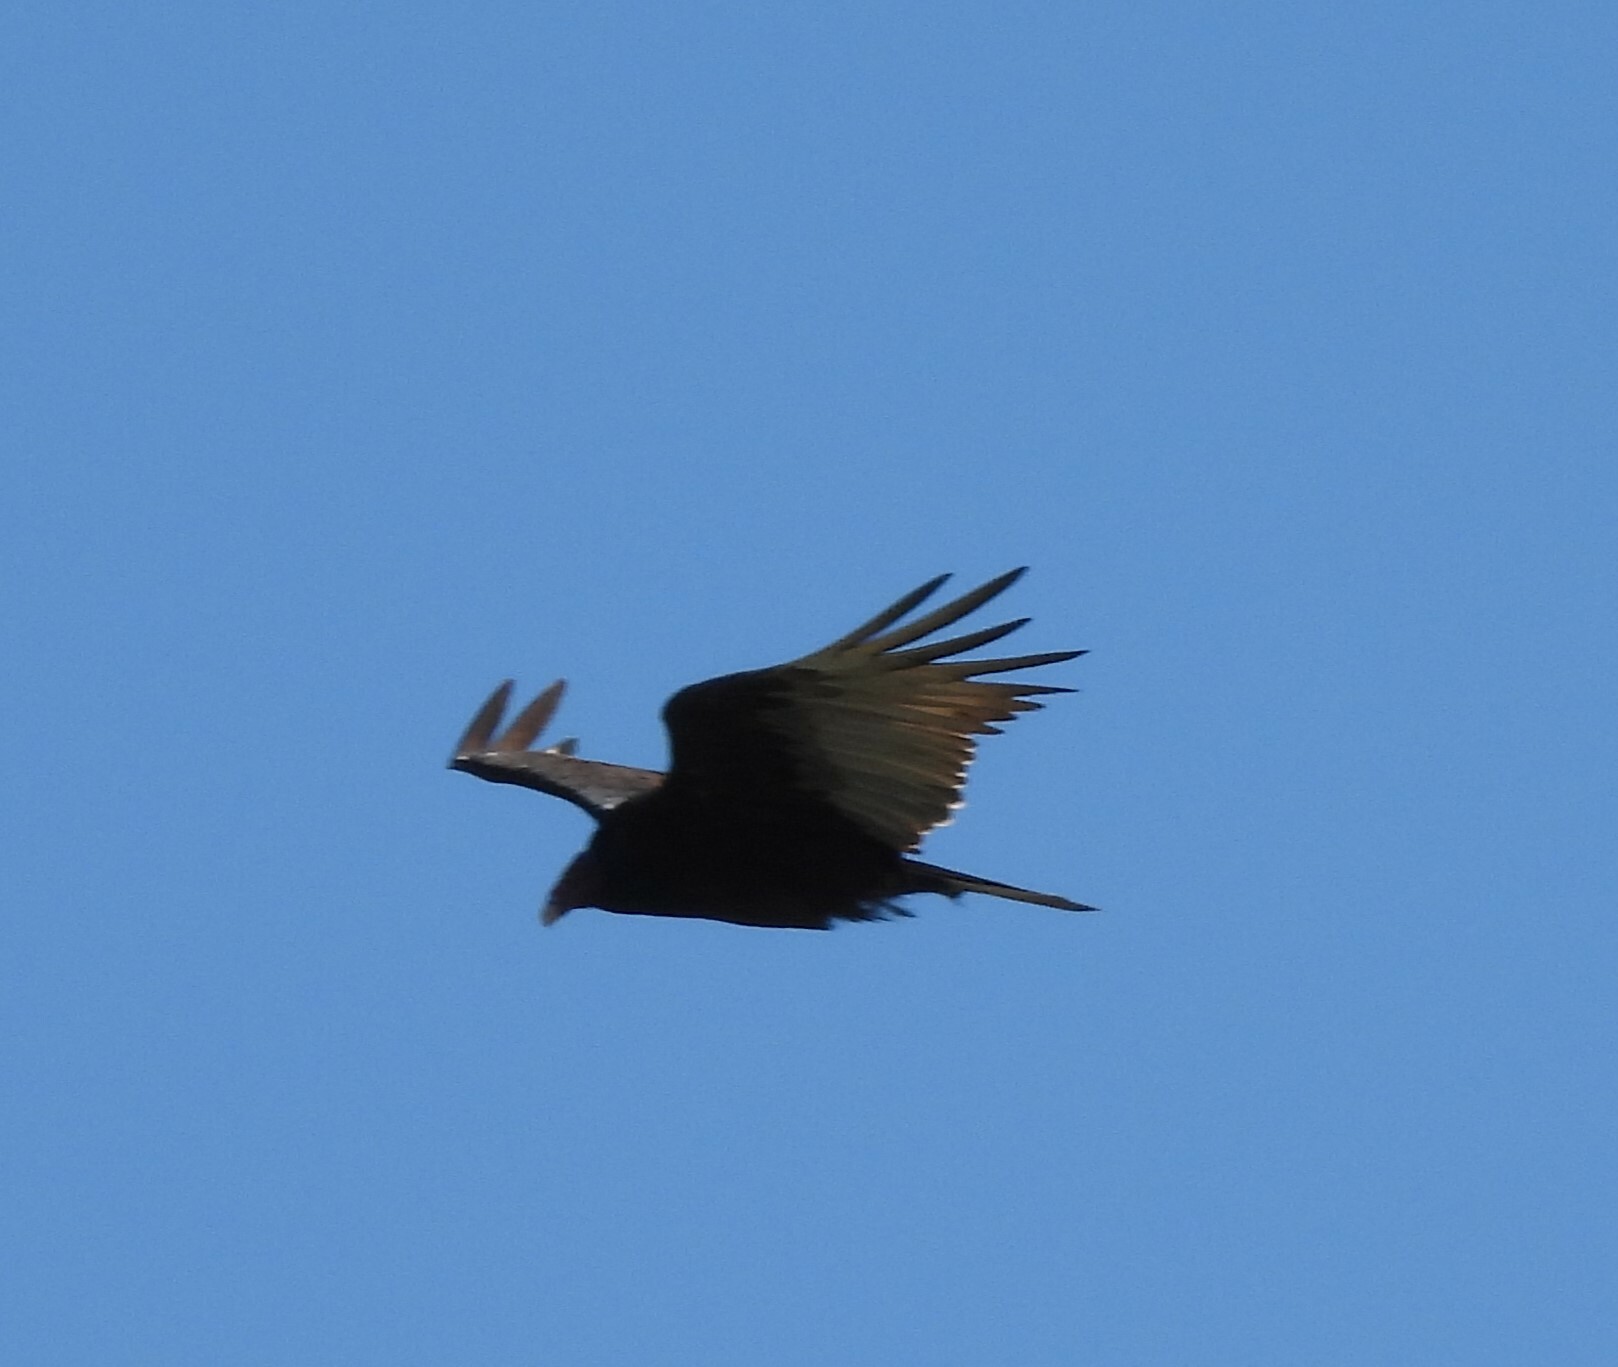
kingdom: Animalia
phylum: Chordata
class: Aves
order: Accipitriformes
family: Cathartidae
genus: Cathartes
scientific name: Cathartes aura
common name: Turkey vulture
